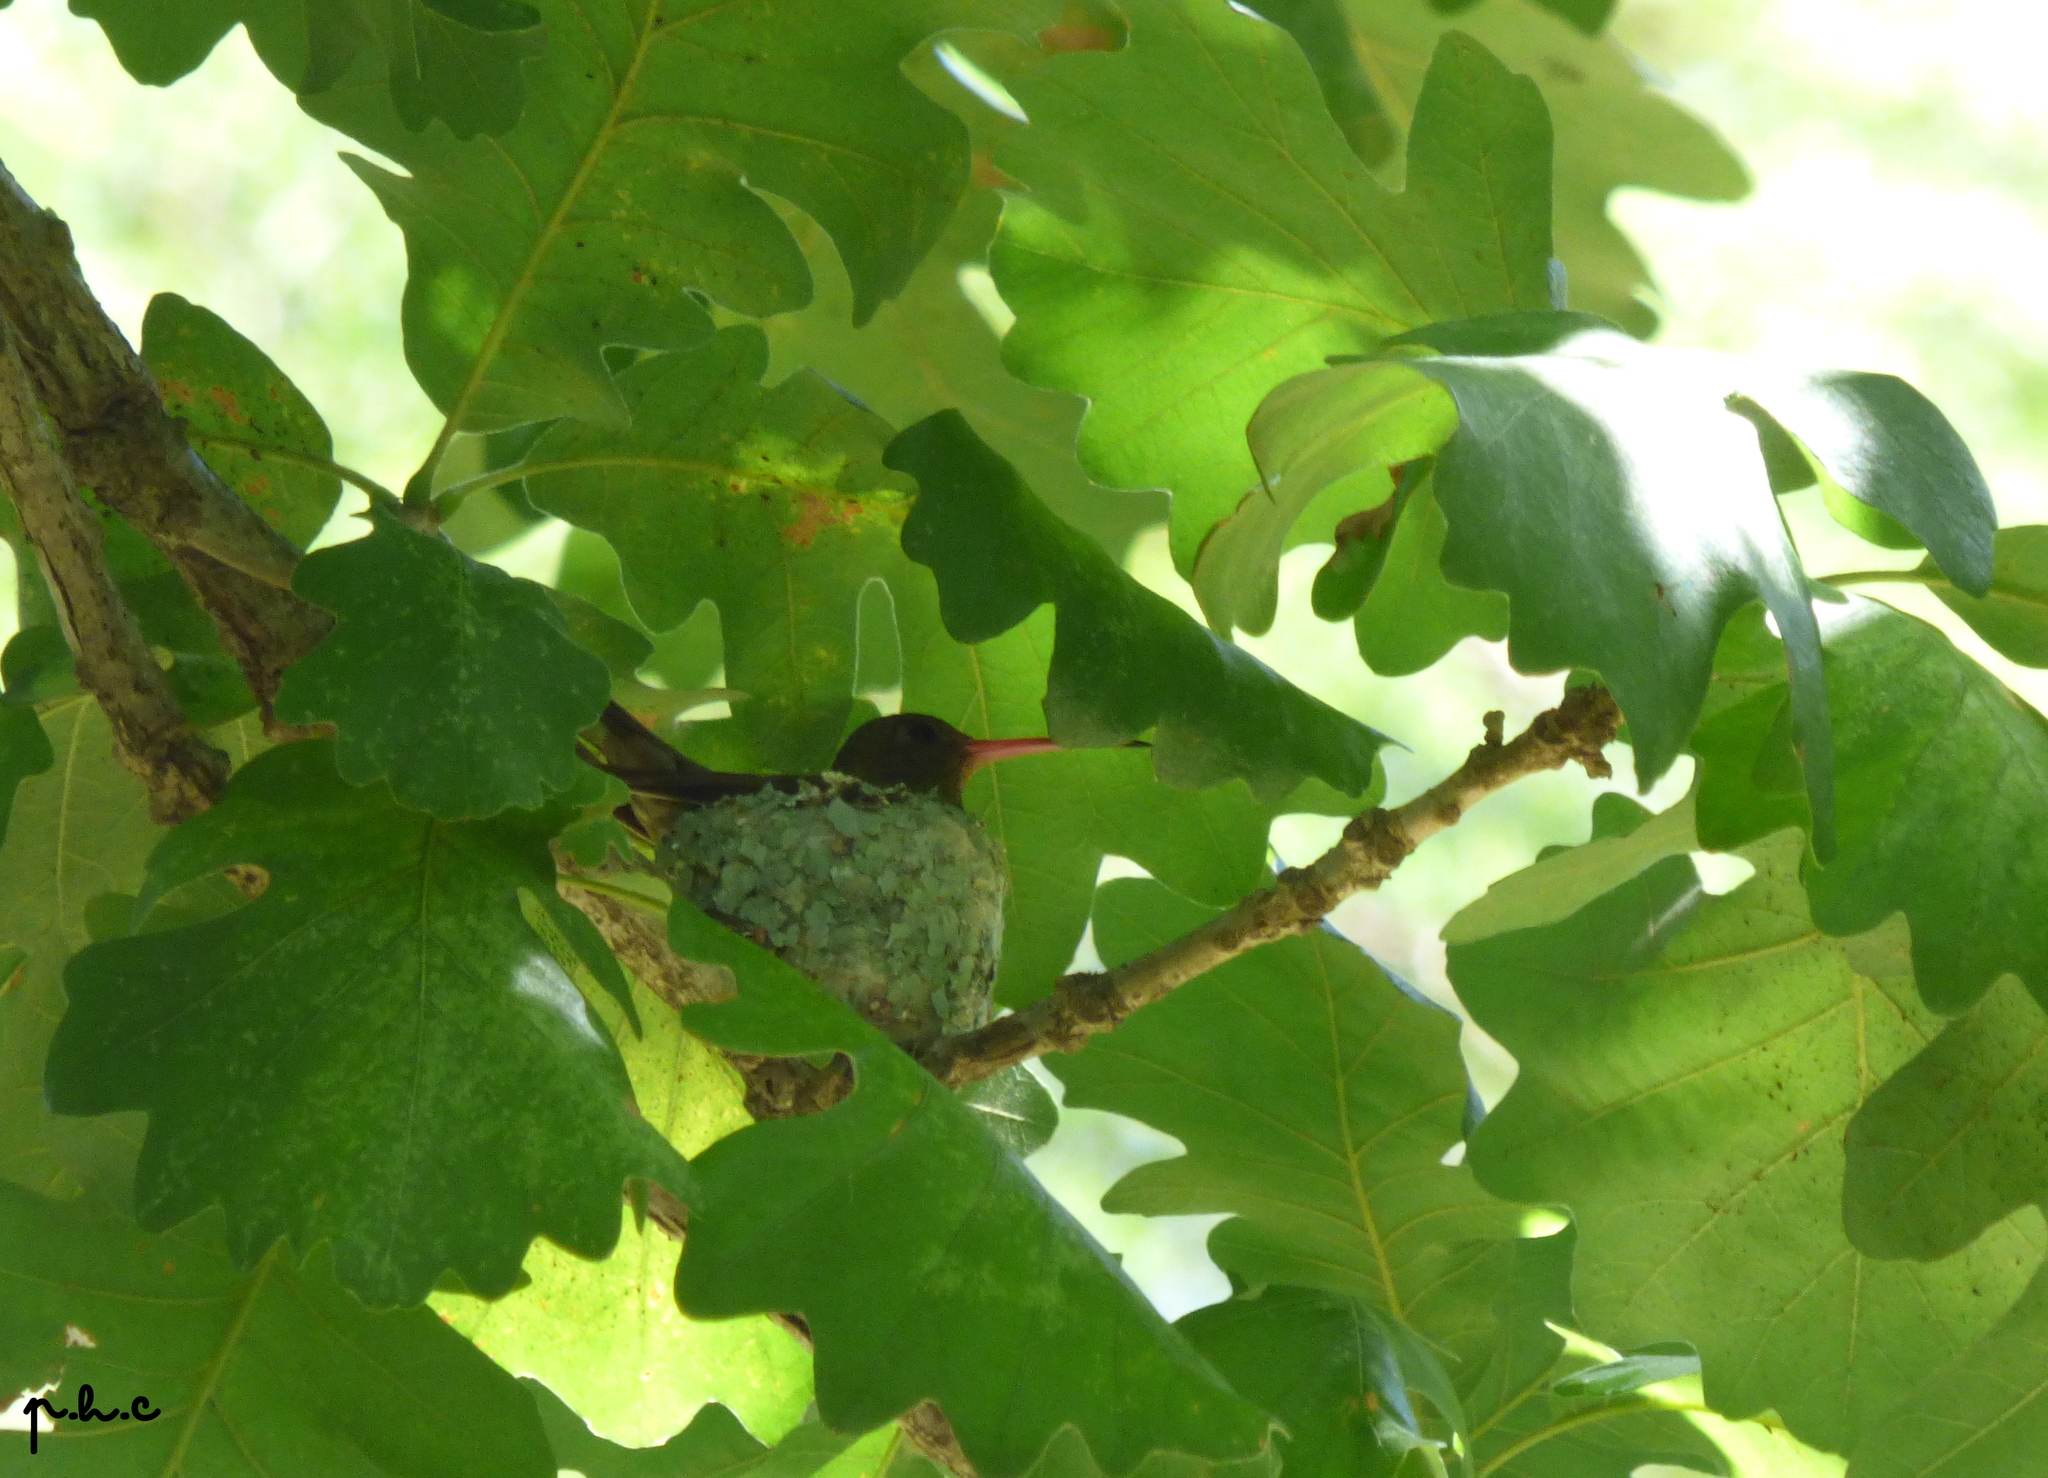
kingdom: Animalia
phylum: Chordata
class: Aves
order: Apodiformes
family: Trochilidae
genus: Hylocharis
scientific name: Hylocharis chrysura
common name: Gilded sapphire
